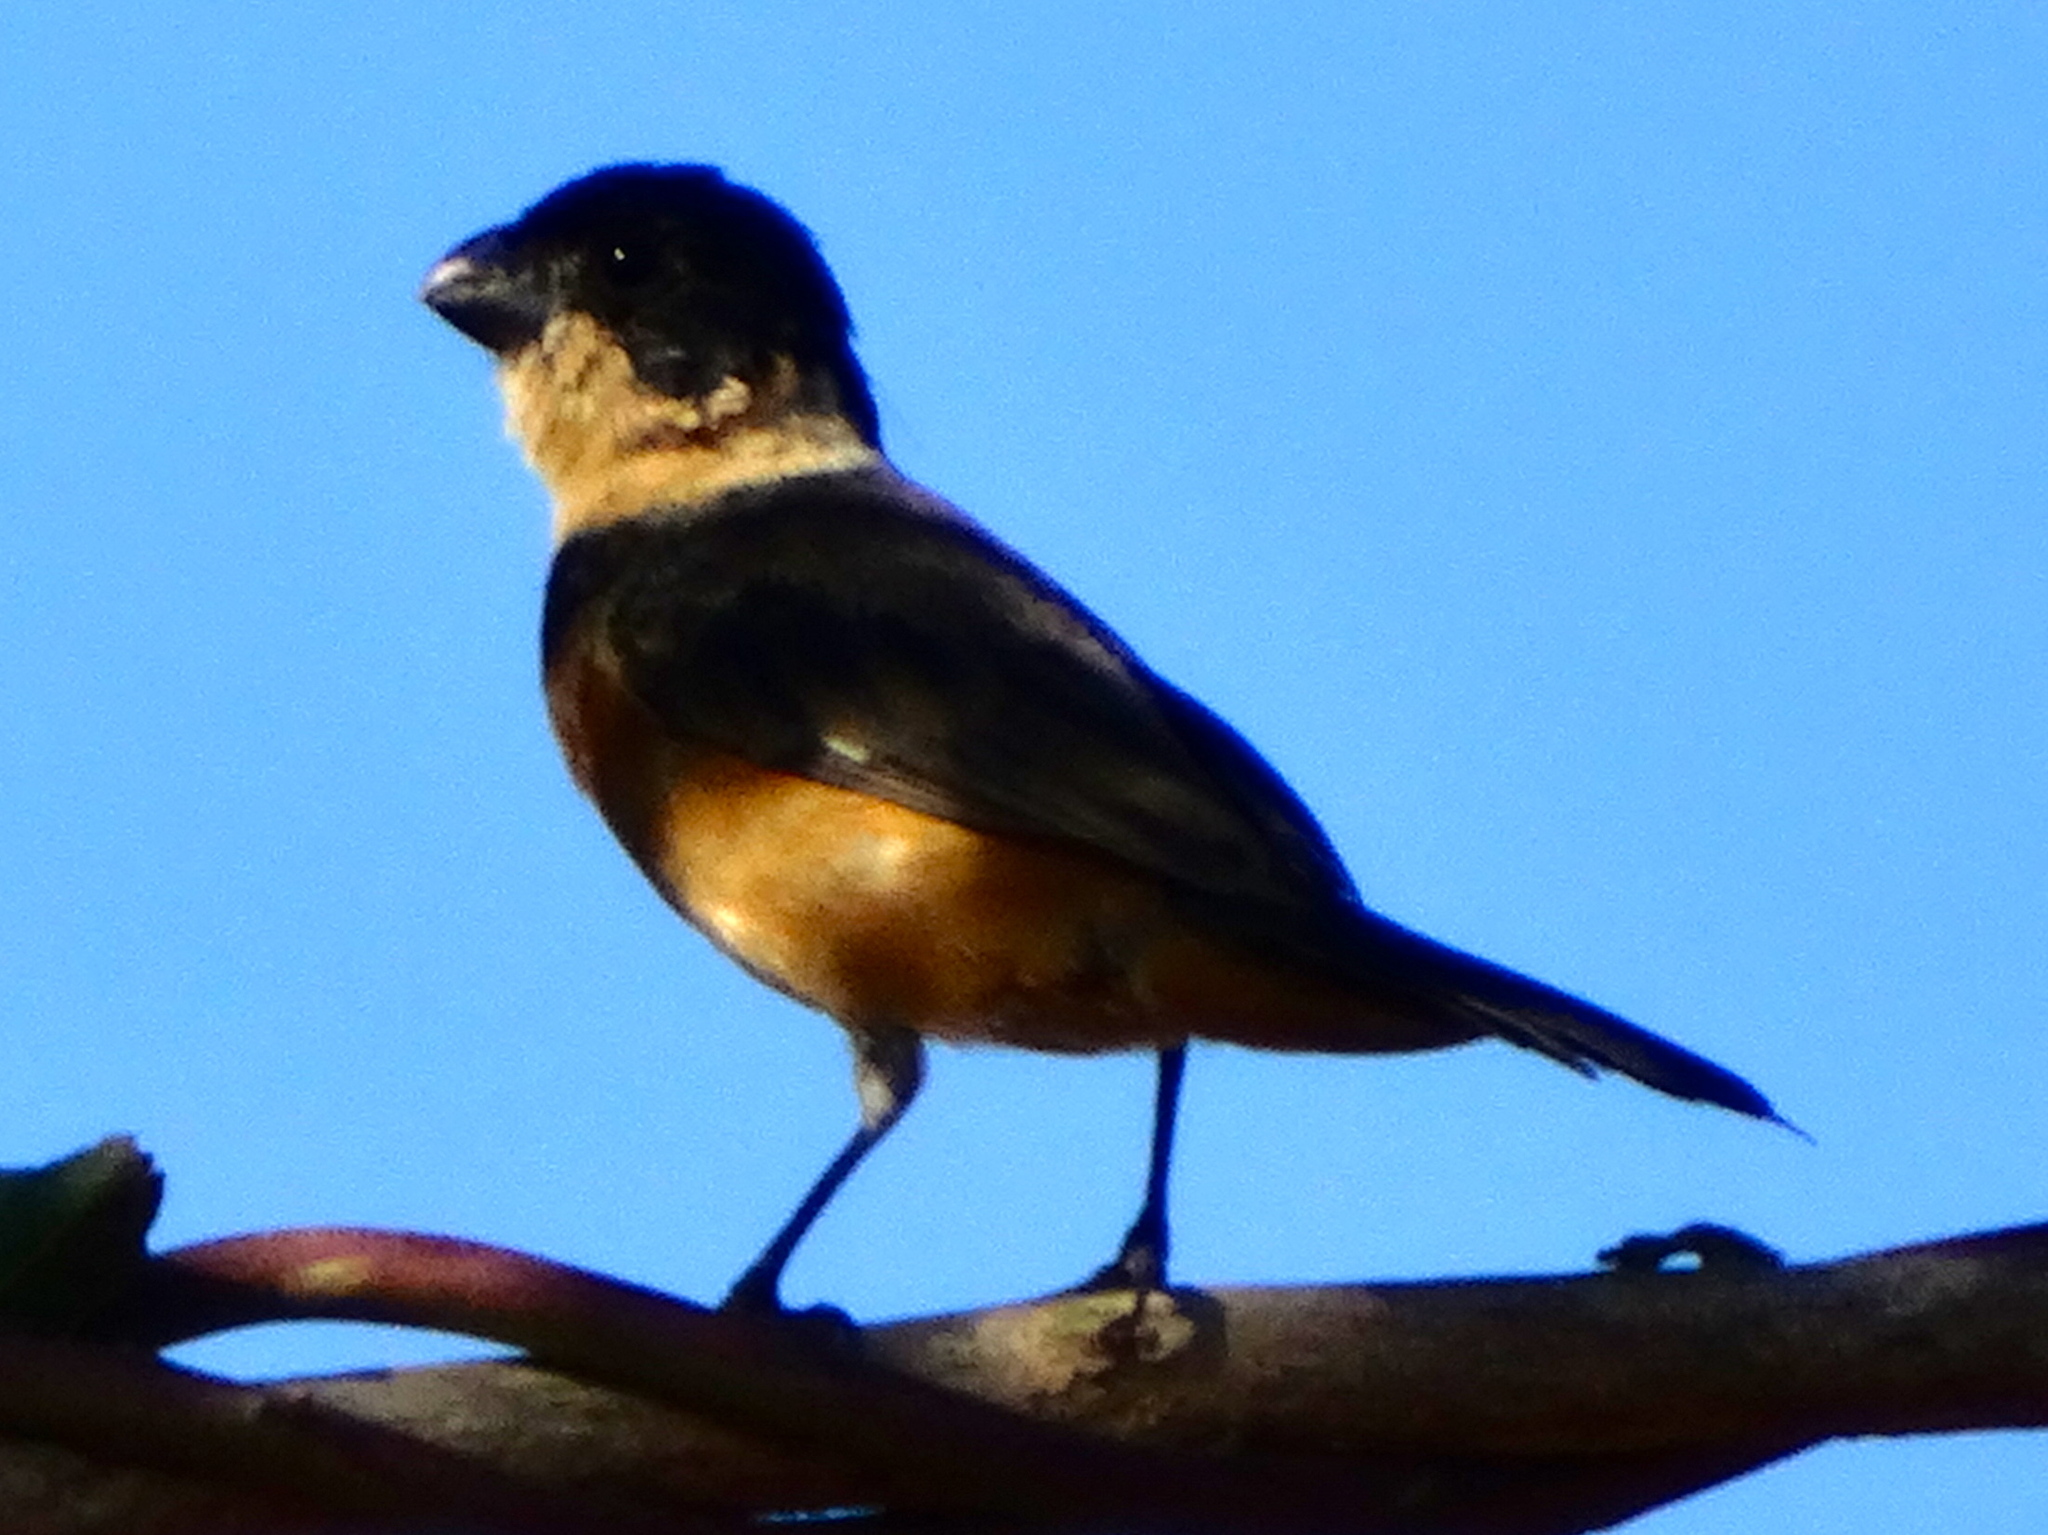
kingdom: Animalia
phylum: Chordata
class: Aves
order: Passeriformes
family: Thraupidae
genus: Sporophila
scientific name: Sporophila torqueola
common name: White-collared seedeater
